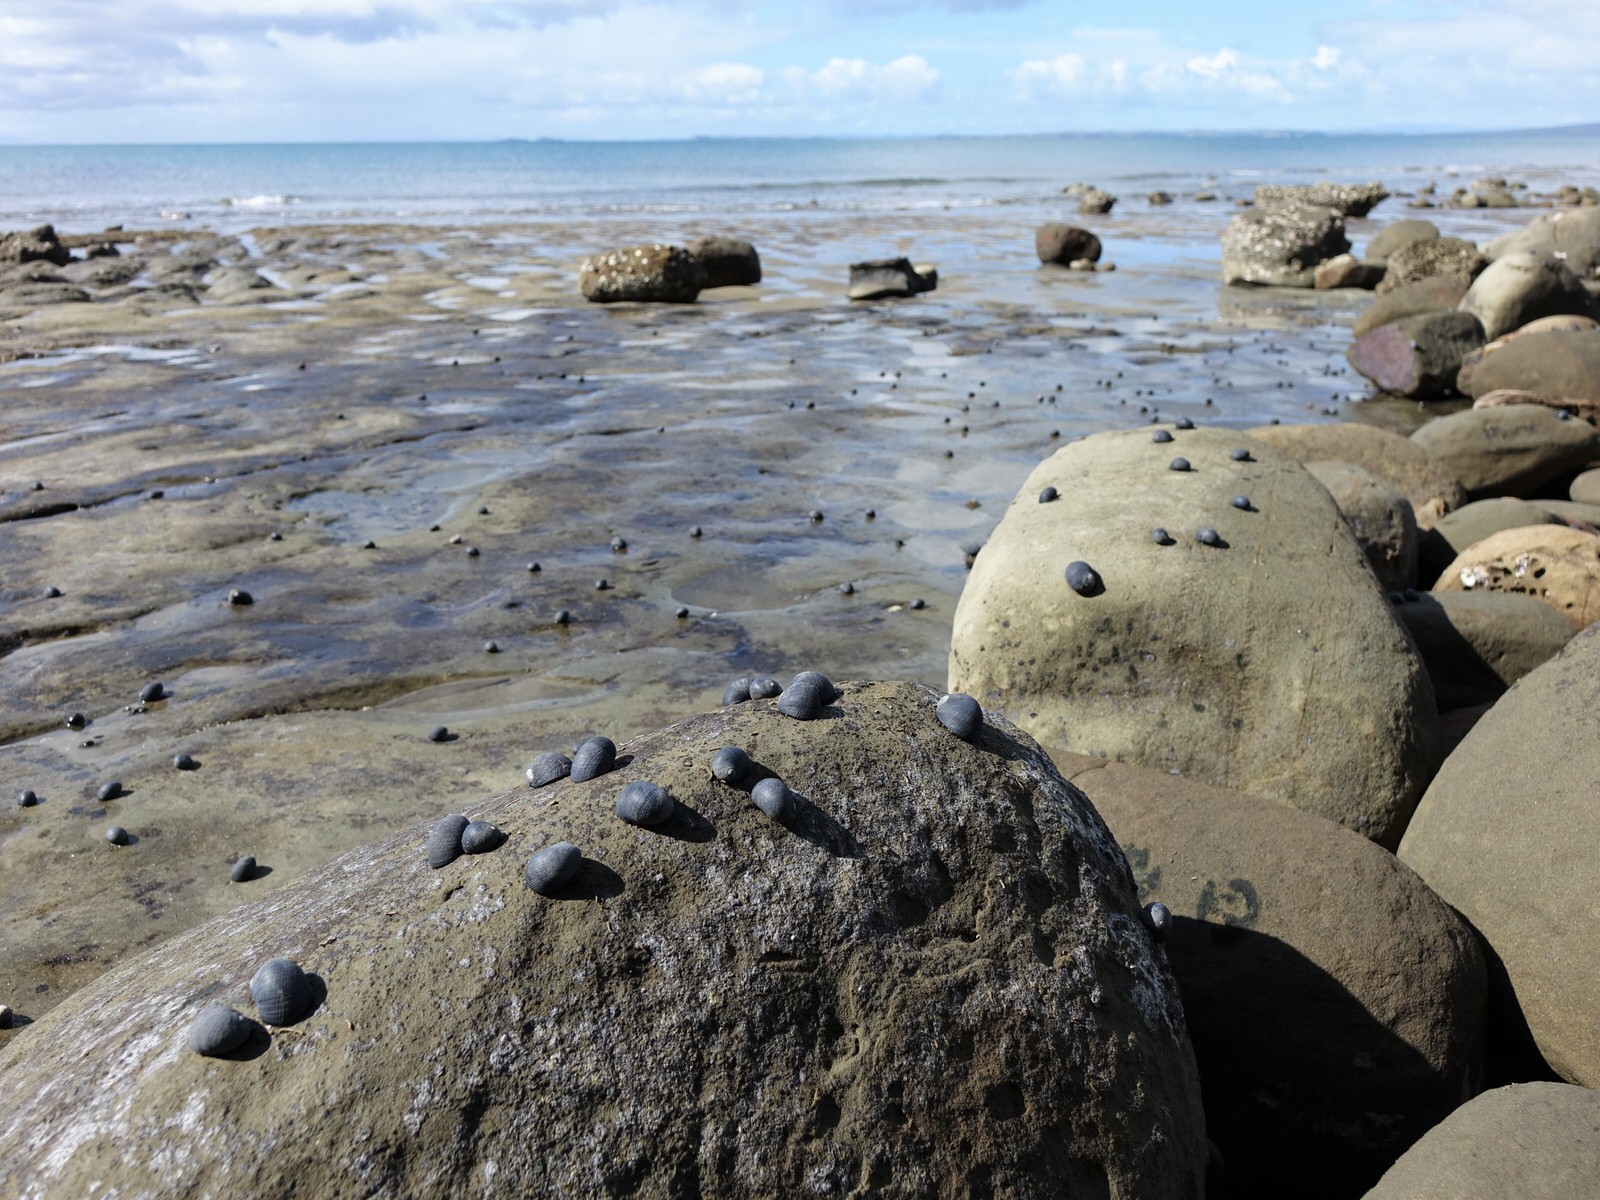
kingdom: Animalia
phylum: Mollusca
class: Gastropoda
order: Cycloneritida
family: Neritidae
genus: Nerita
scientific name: Nerita melanotragus
